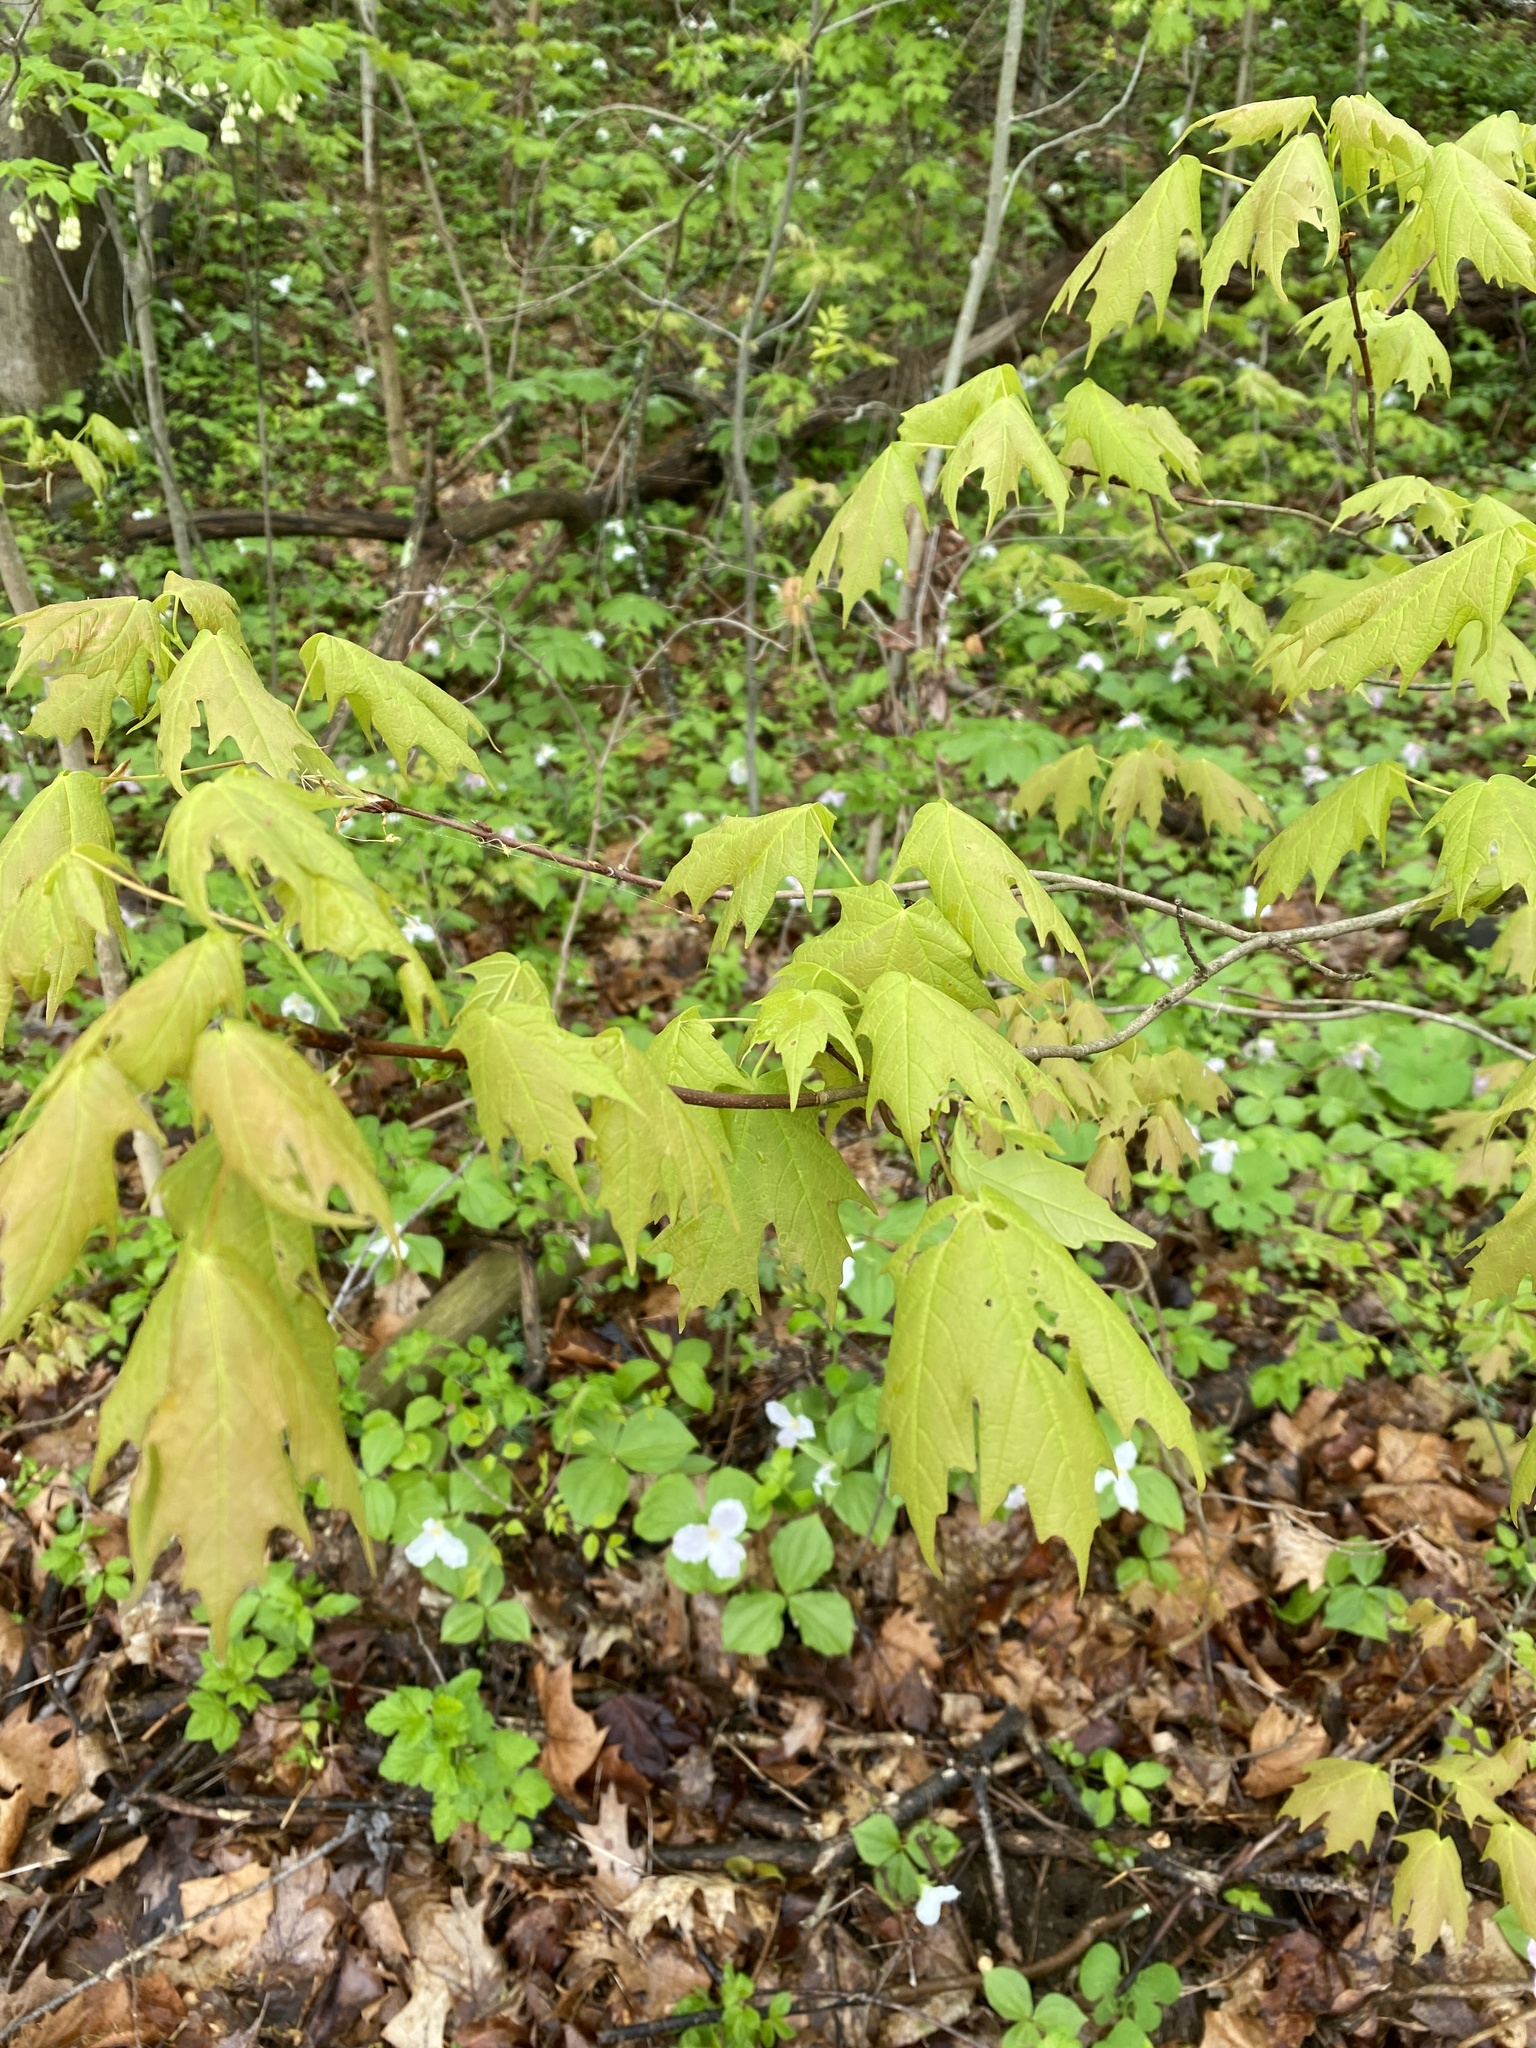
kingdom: Plantae
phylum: Tracheophyta
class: Magnoliopsida
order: Sapindales
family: Sapindaceae
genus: Acer
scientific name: Acer saccharum
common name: Sugar maple
